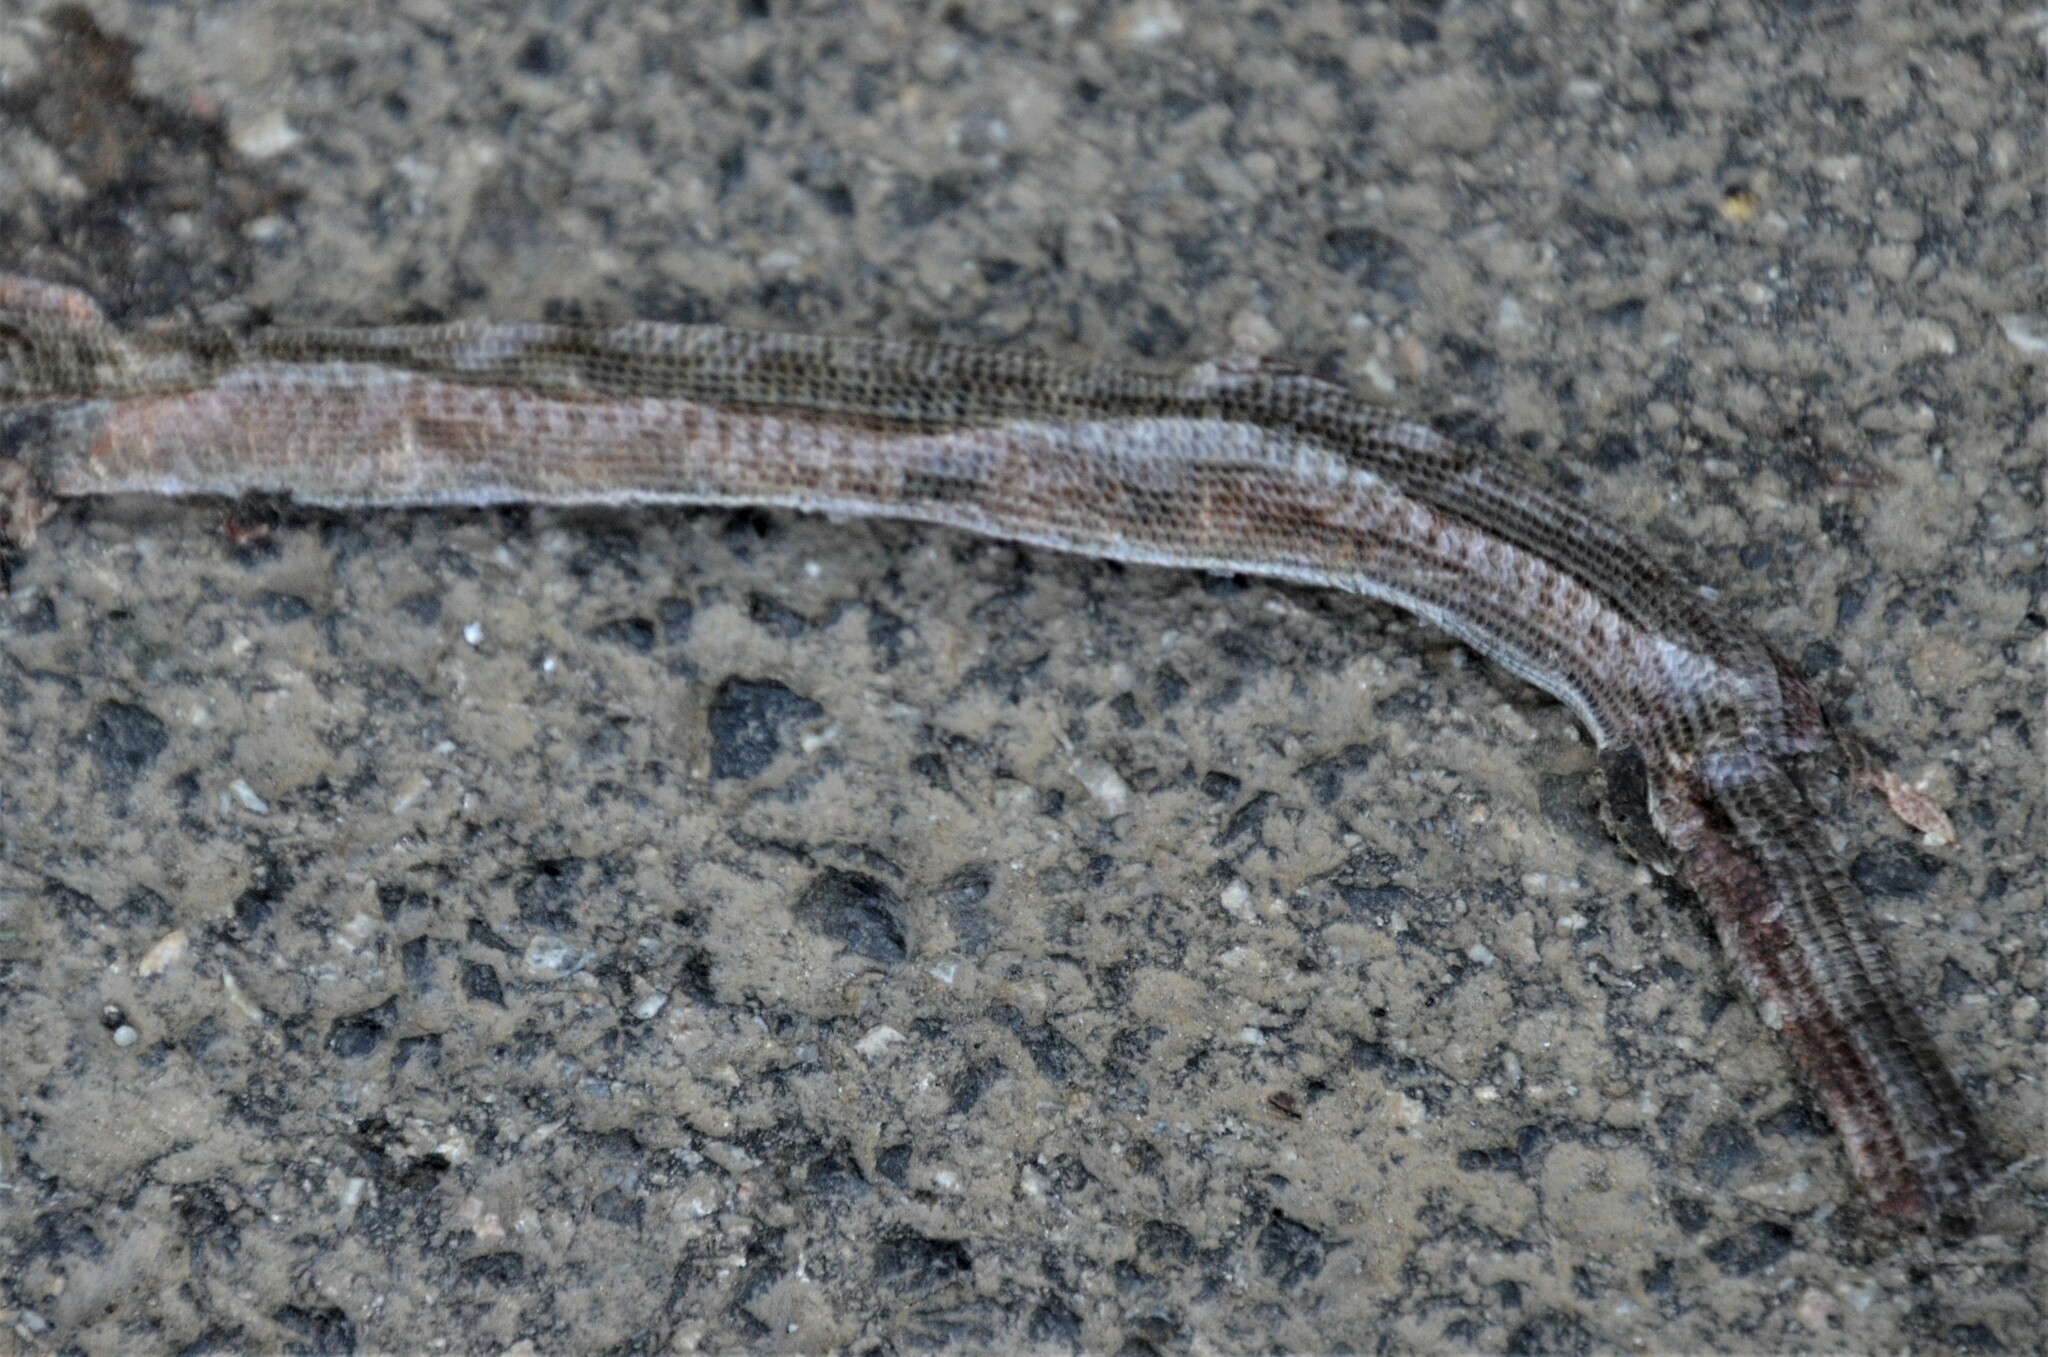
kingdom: Animalia
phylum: Chordata
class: Squamata
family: Anguidae
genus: Anguis
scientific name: Anguis fragilis
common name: Slow worm
